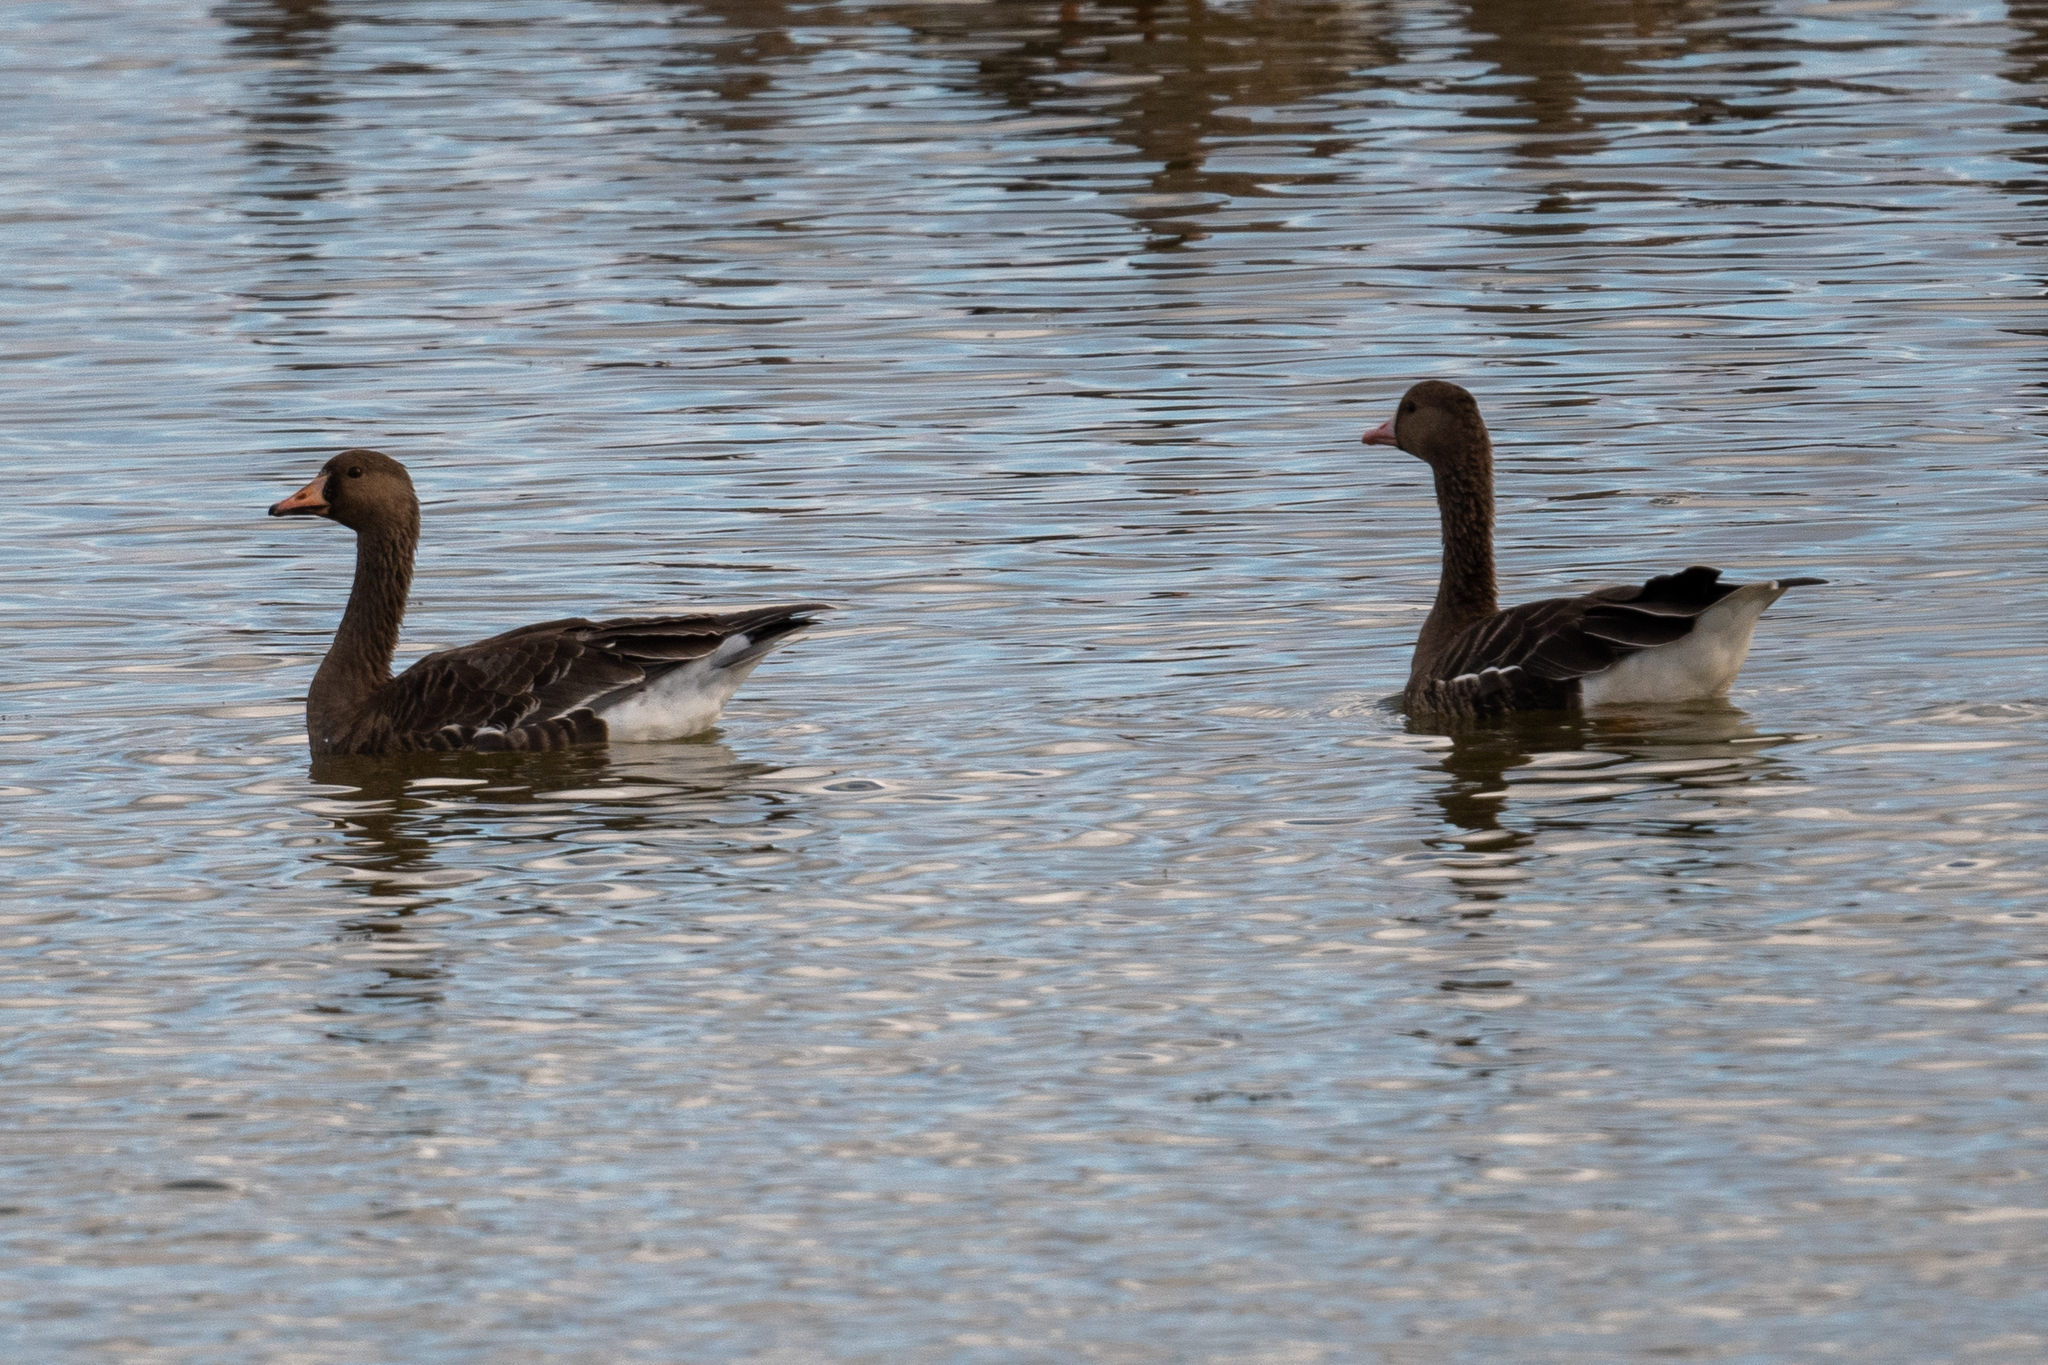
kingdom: Animalia
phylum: Chordata
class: Aves
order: Anseriformes
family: Anatidae
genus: Anser
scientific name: Anser albifrons
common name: Greater white-fronted goose
